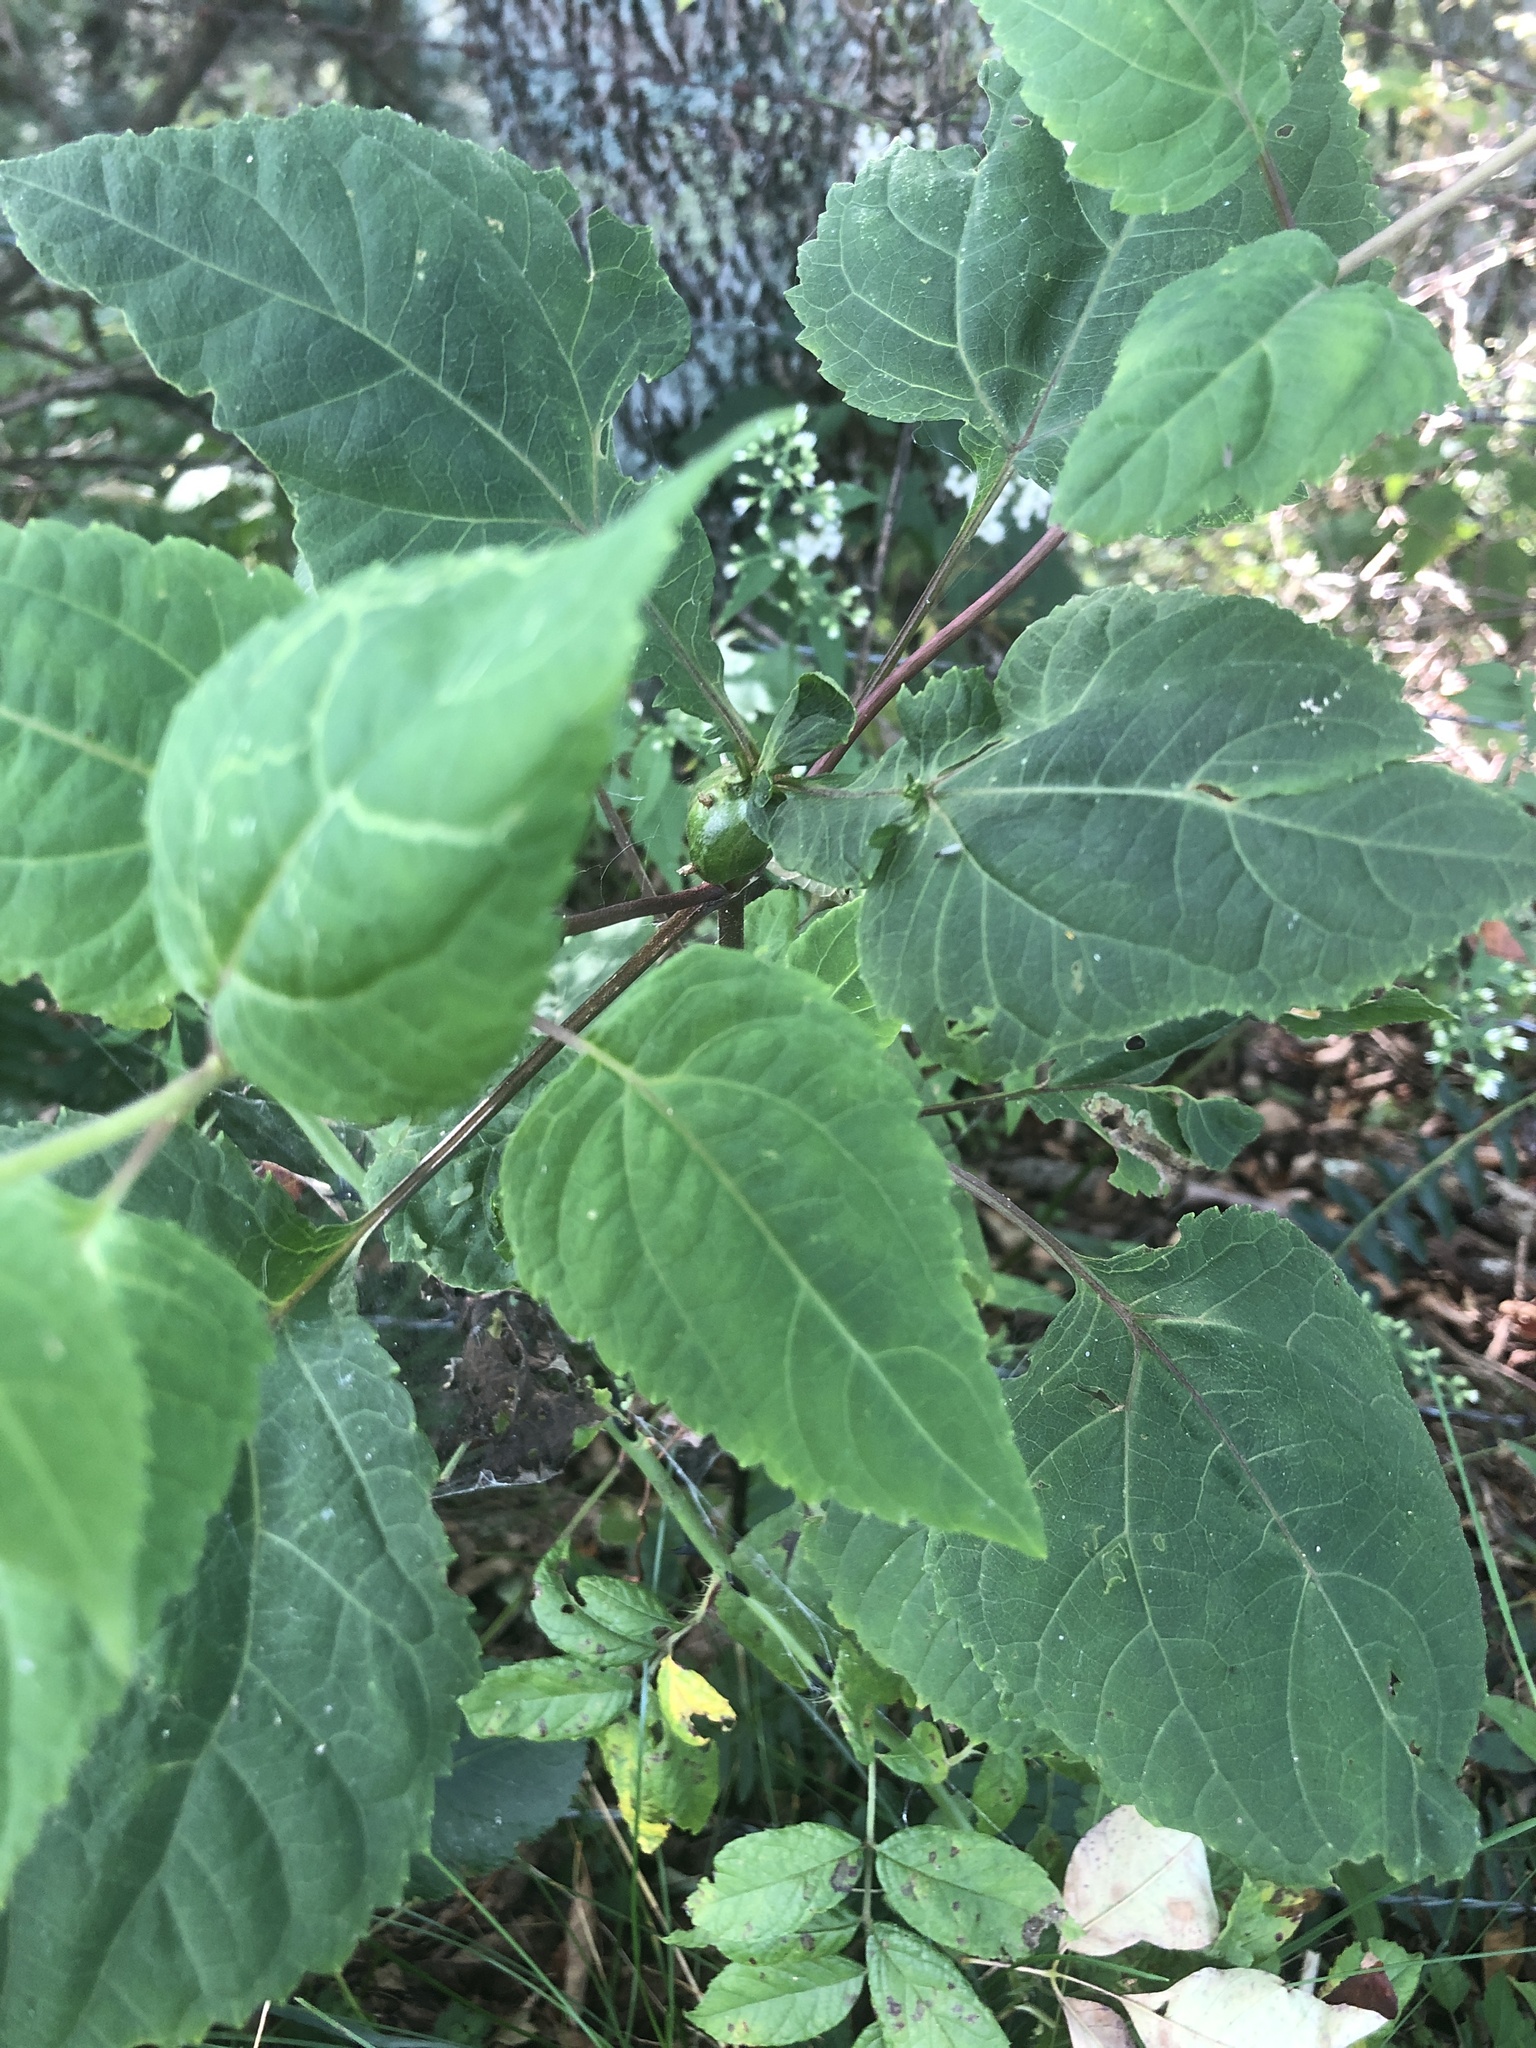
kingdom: Plantae
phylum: Tracheophyta
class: Magnoliopsida
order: Asterales
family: Asteraceae
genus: Ageratina
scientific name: Ageratina altissima
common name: White snakeroot
